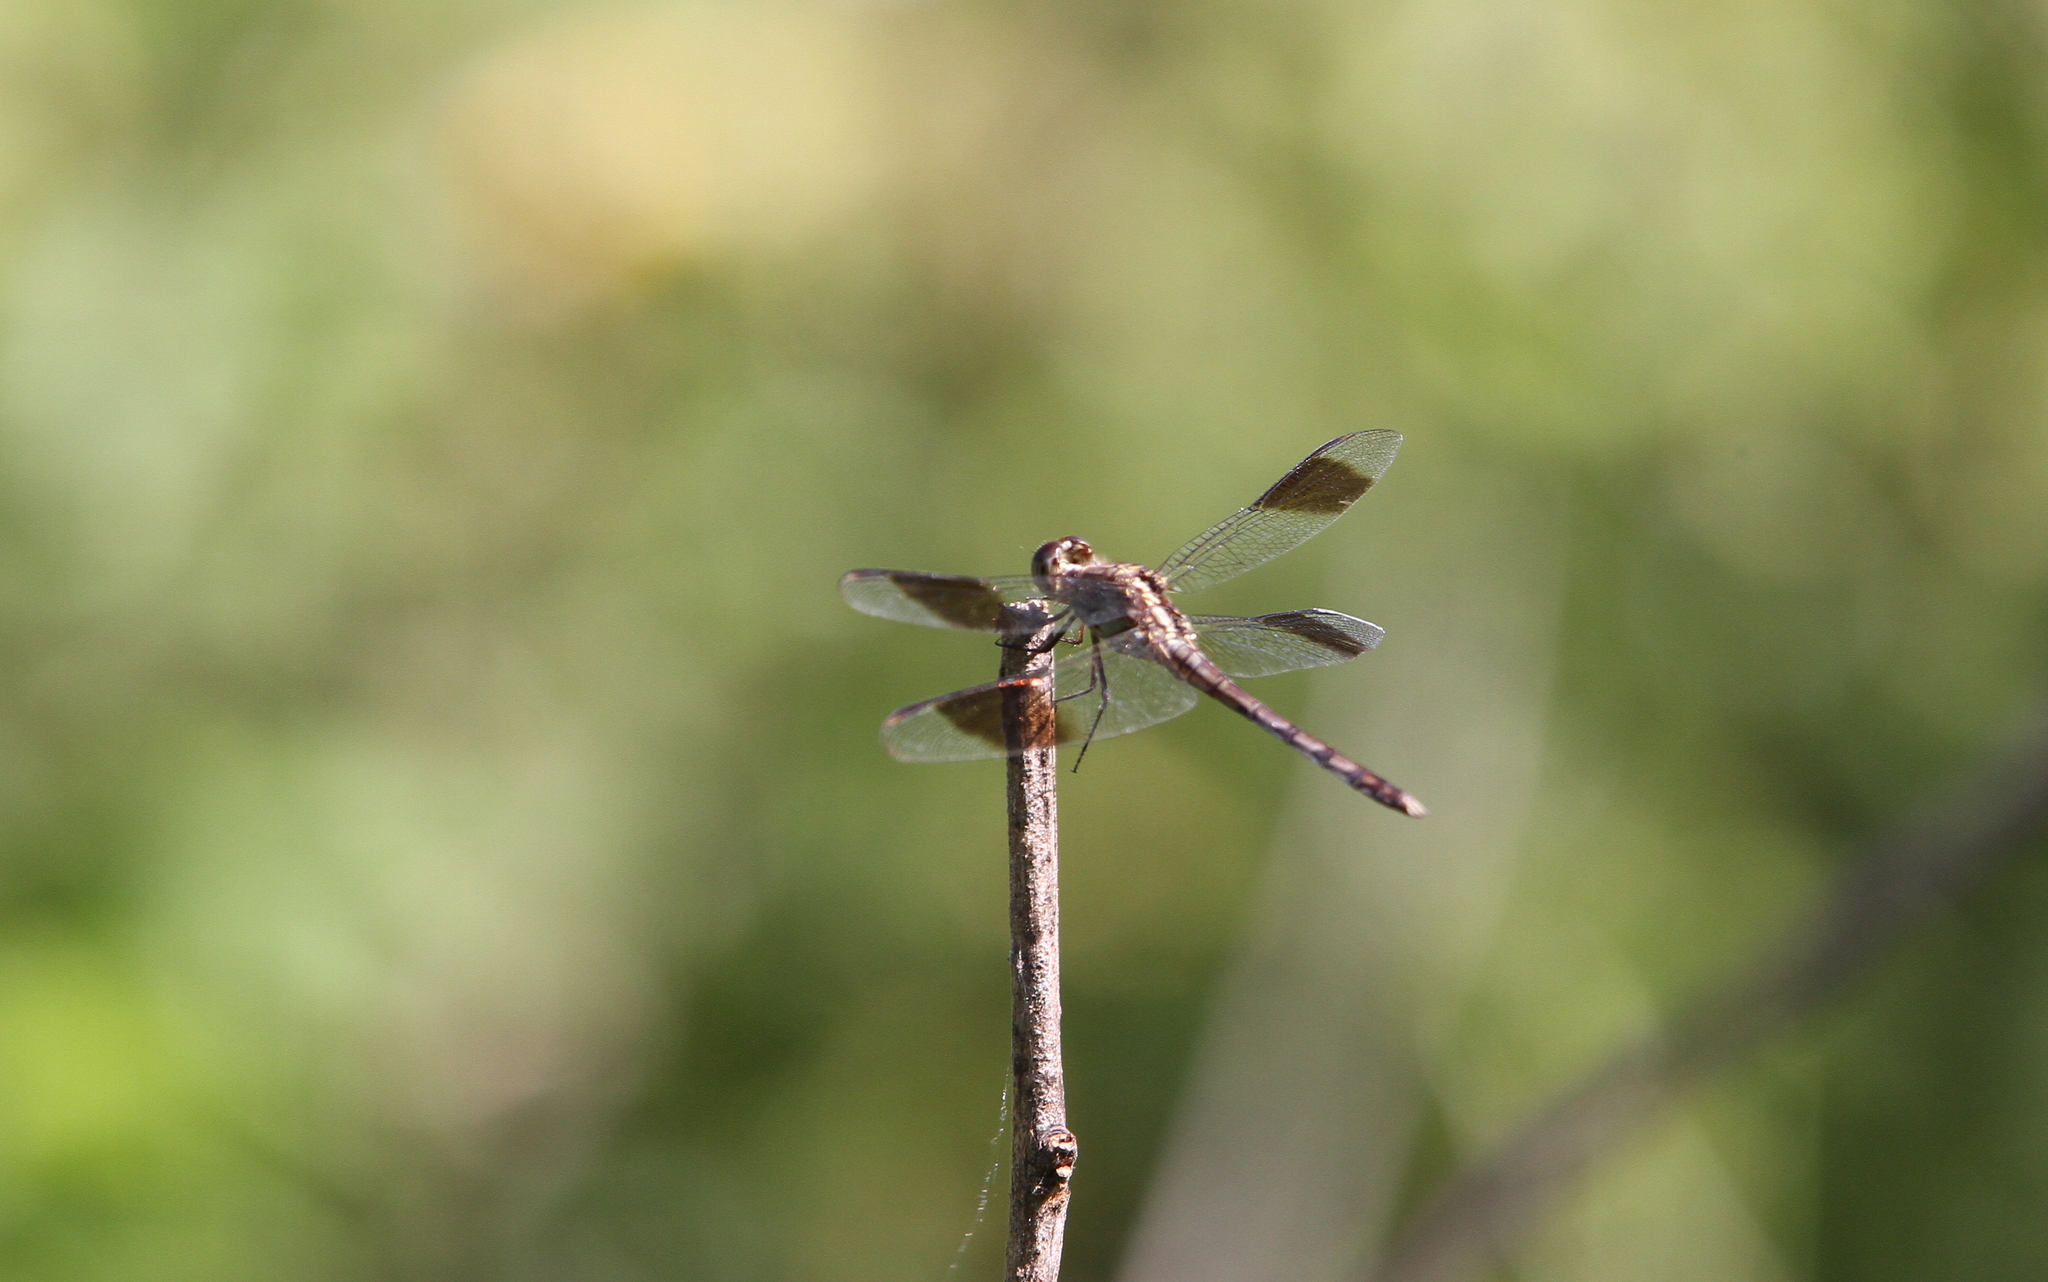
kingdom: Animalia
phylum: Arthropoda
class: Insecta
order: Odonata
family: Libellulidae
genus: Erythrodiplax
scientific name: Erythrodiplax umbrata
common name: Band-winged dragonlet
